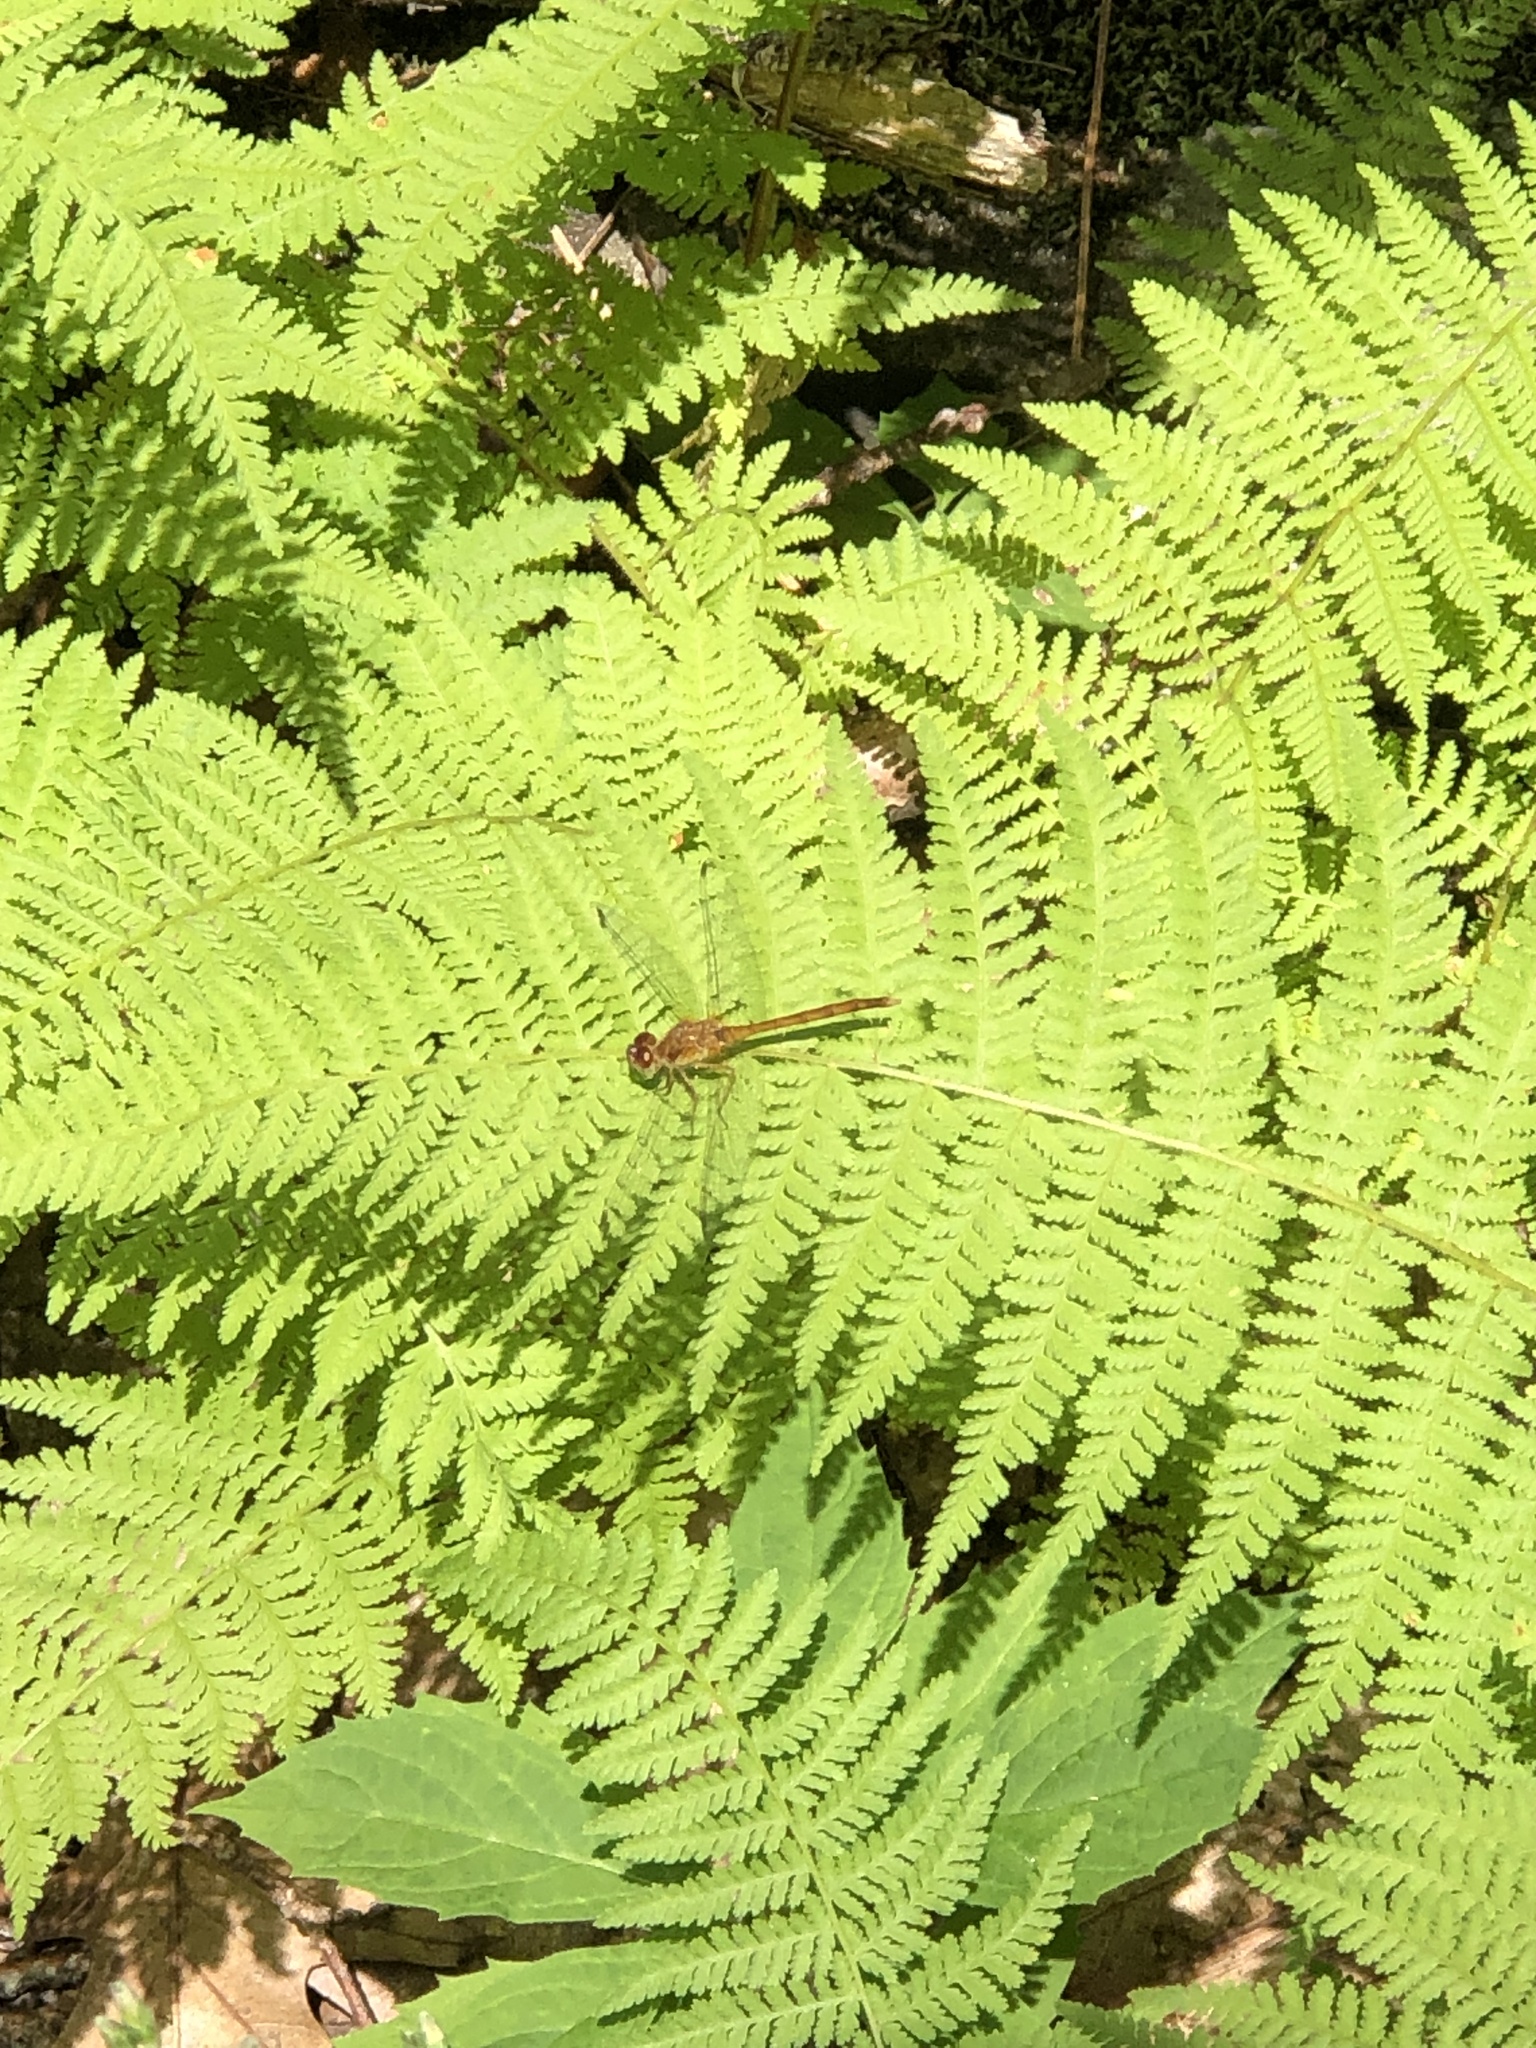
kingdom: Animalia
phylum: Arthropoda
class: Insecta
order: Odonata
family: Libellulidae
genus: Sympetrum
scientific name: Sympetrum vicinum
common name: Autumn meadowhawk
